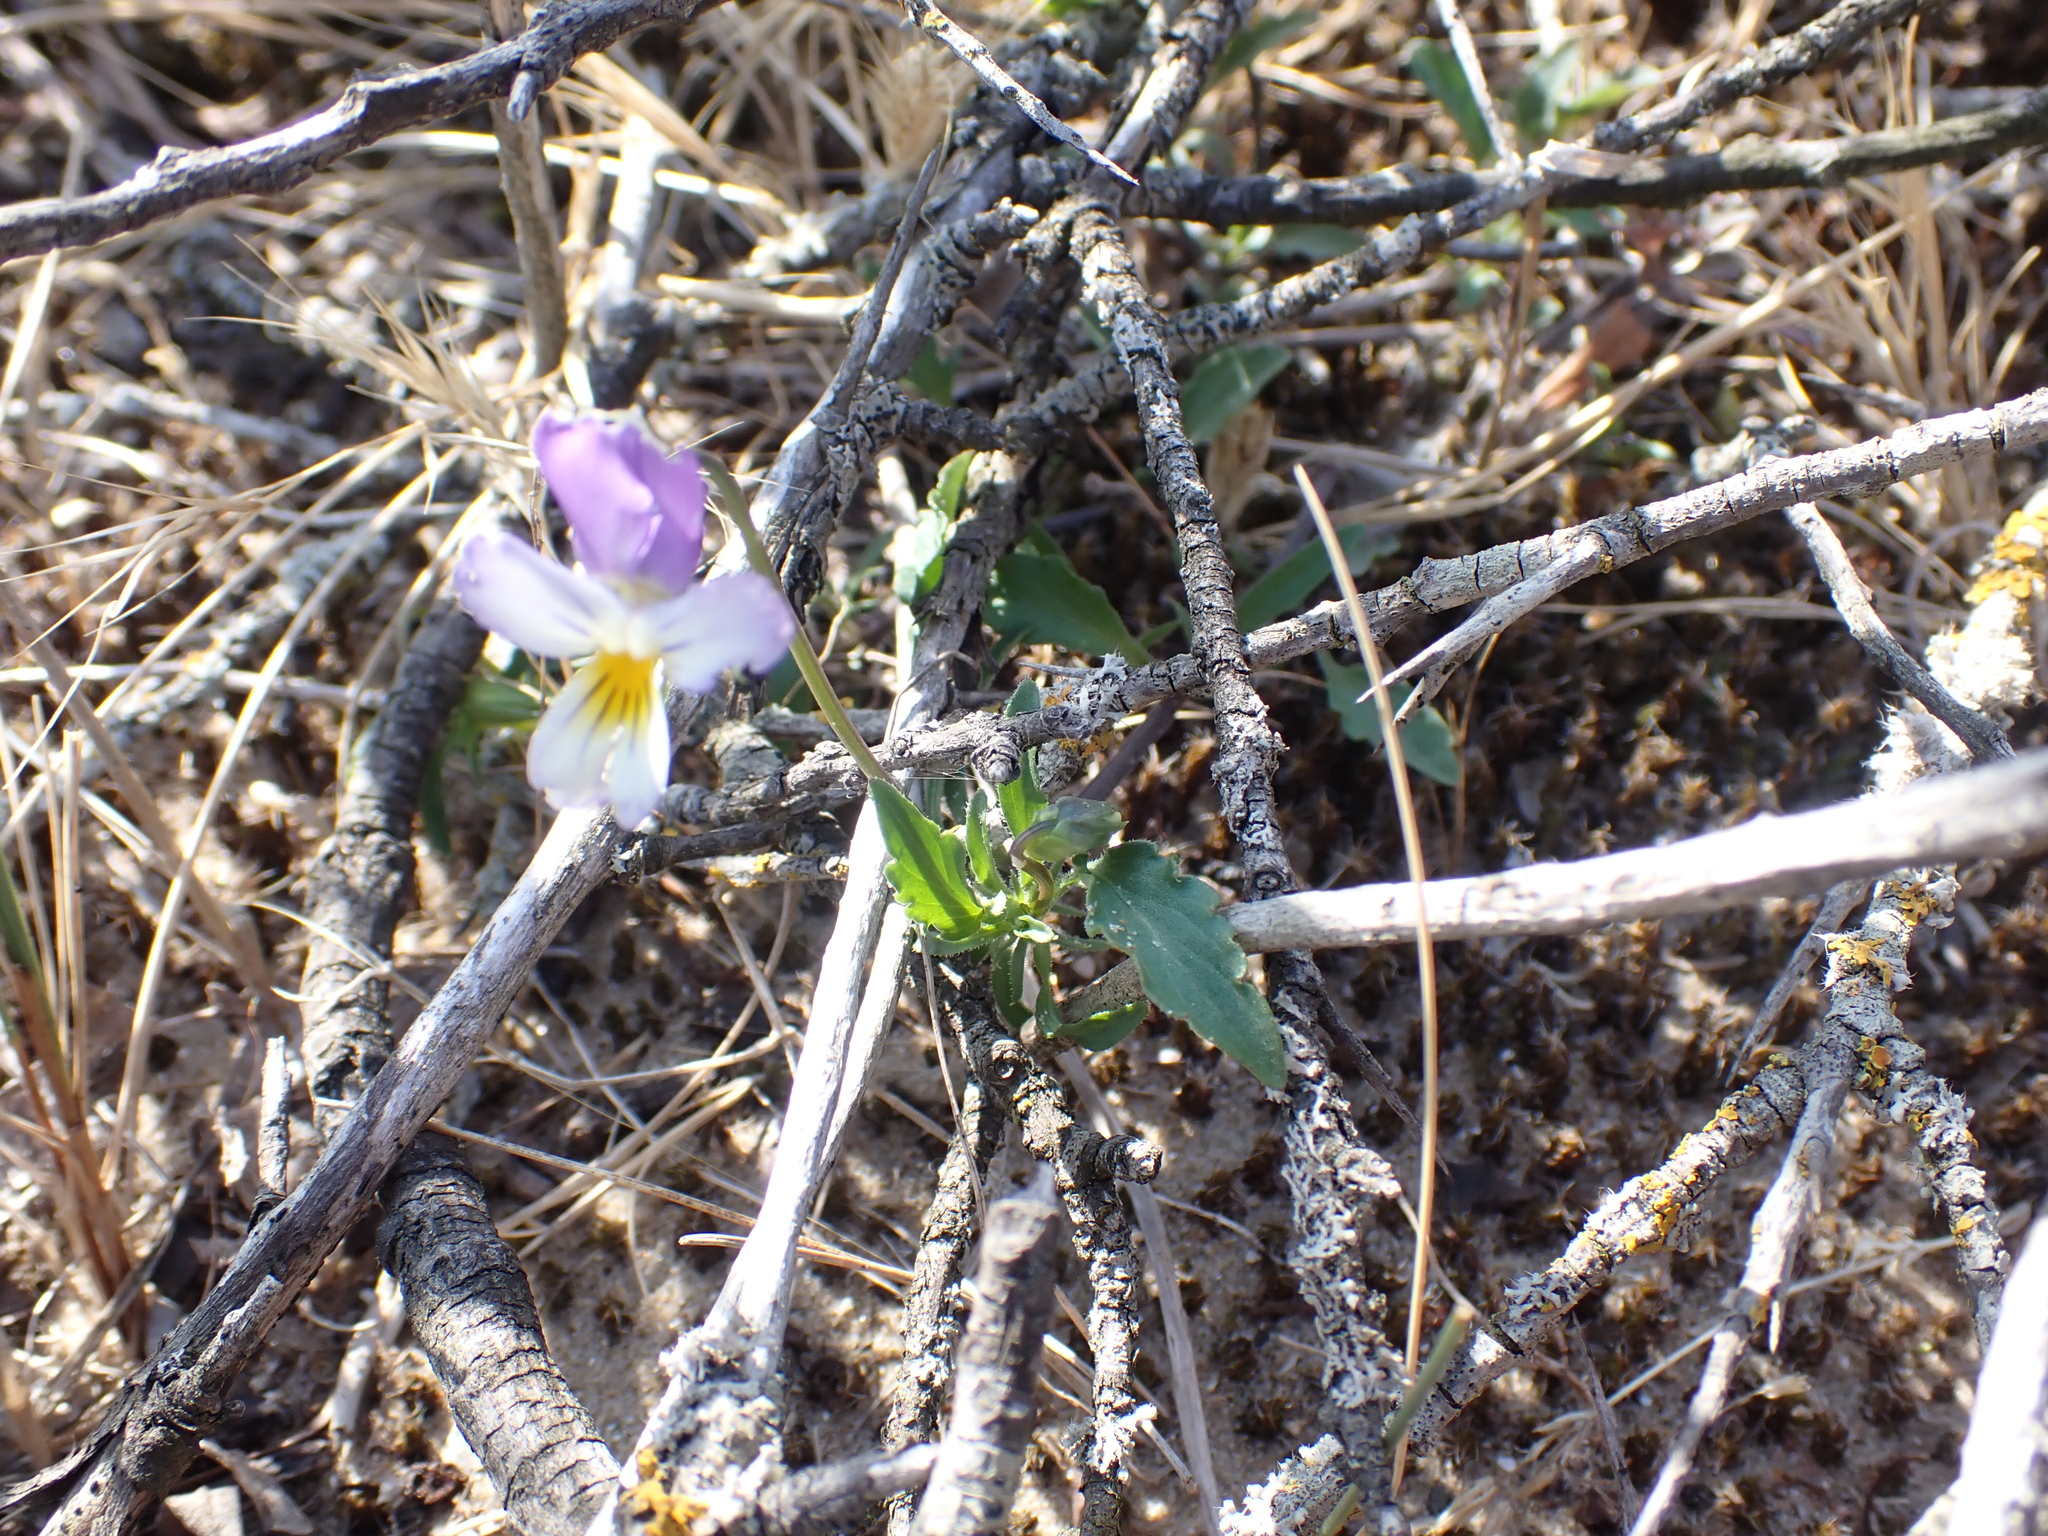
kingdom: Plantae
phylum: Tracheophyta
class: Magnoliopsida
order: Malpighiales
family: Violaceae
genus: Viola
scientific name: Viola tricolor
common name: Pansy
